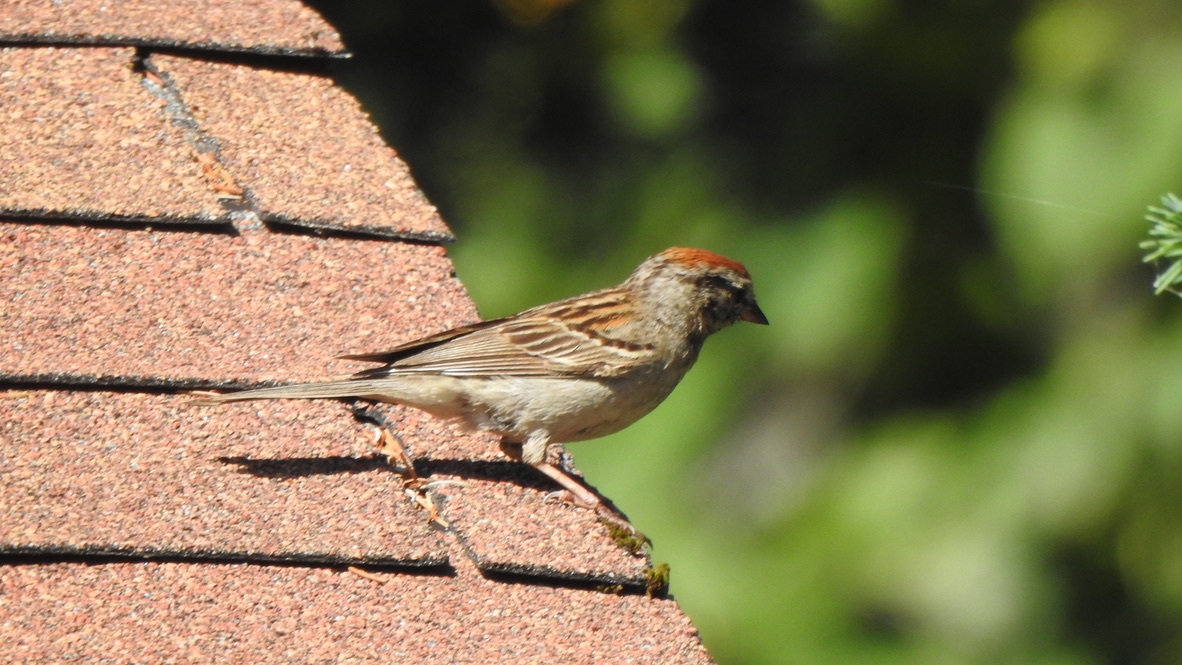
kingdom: Animalia
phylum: Chordata
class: Aves
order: Passeriformes
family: Passerellidae
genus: Spizella
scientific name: Spizella passerina
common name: Chipping sparrow
